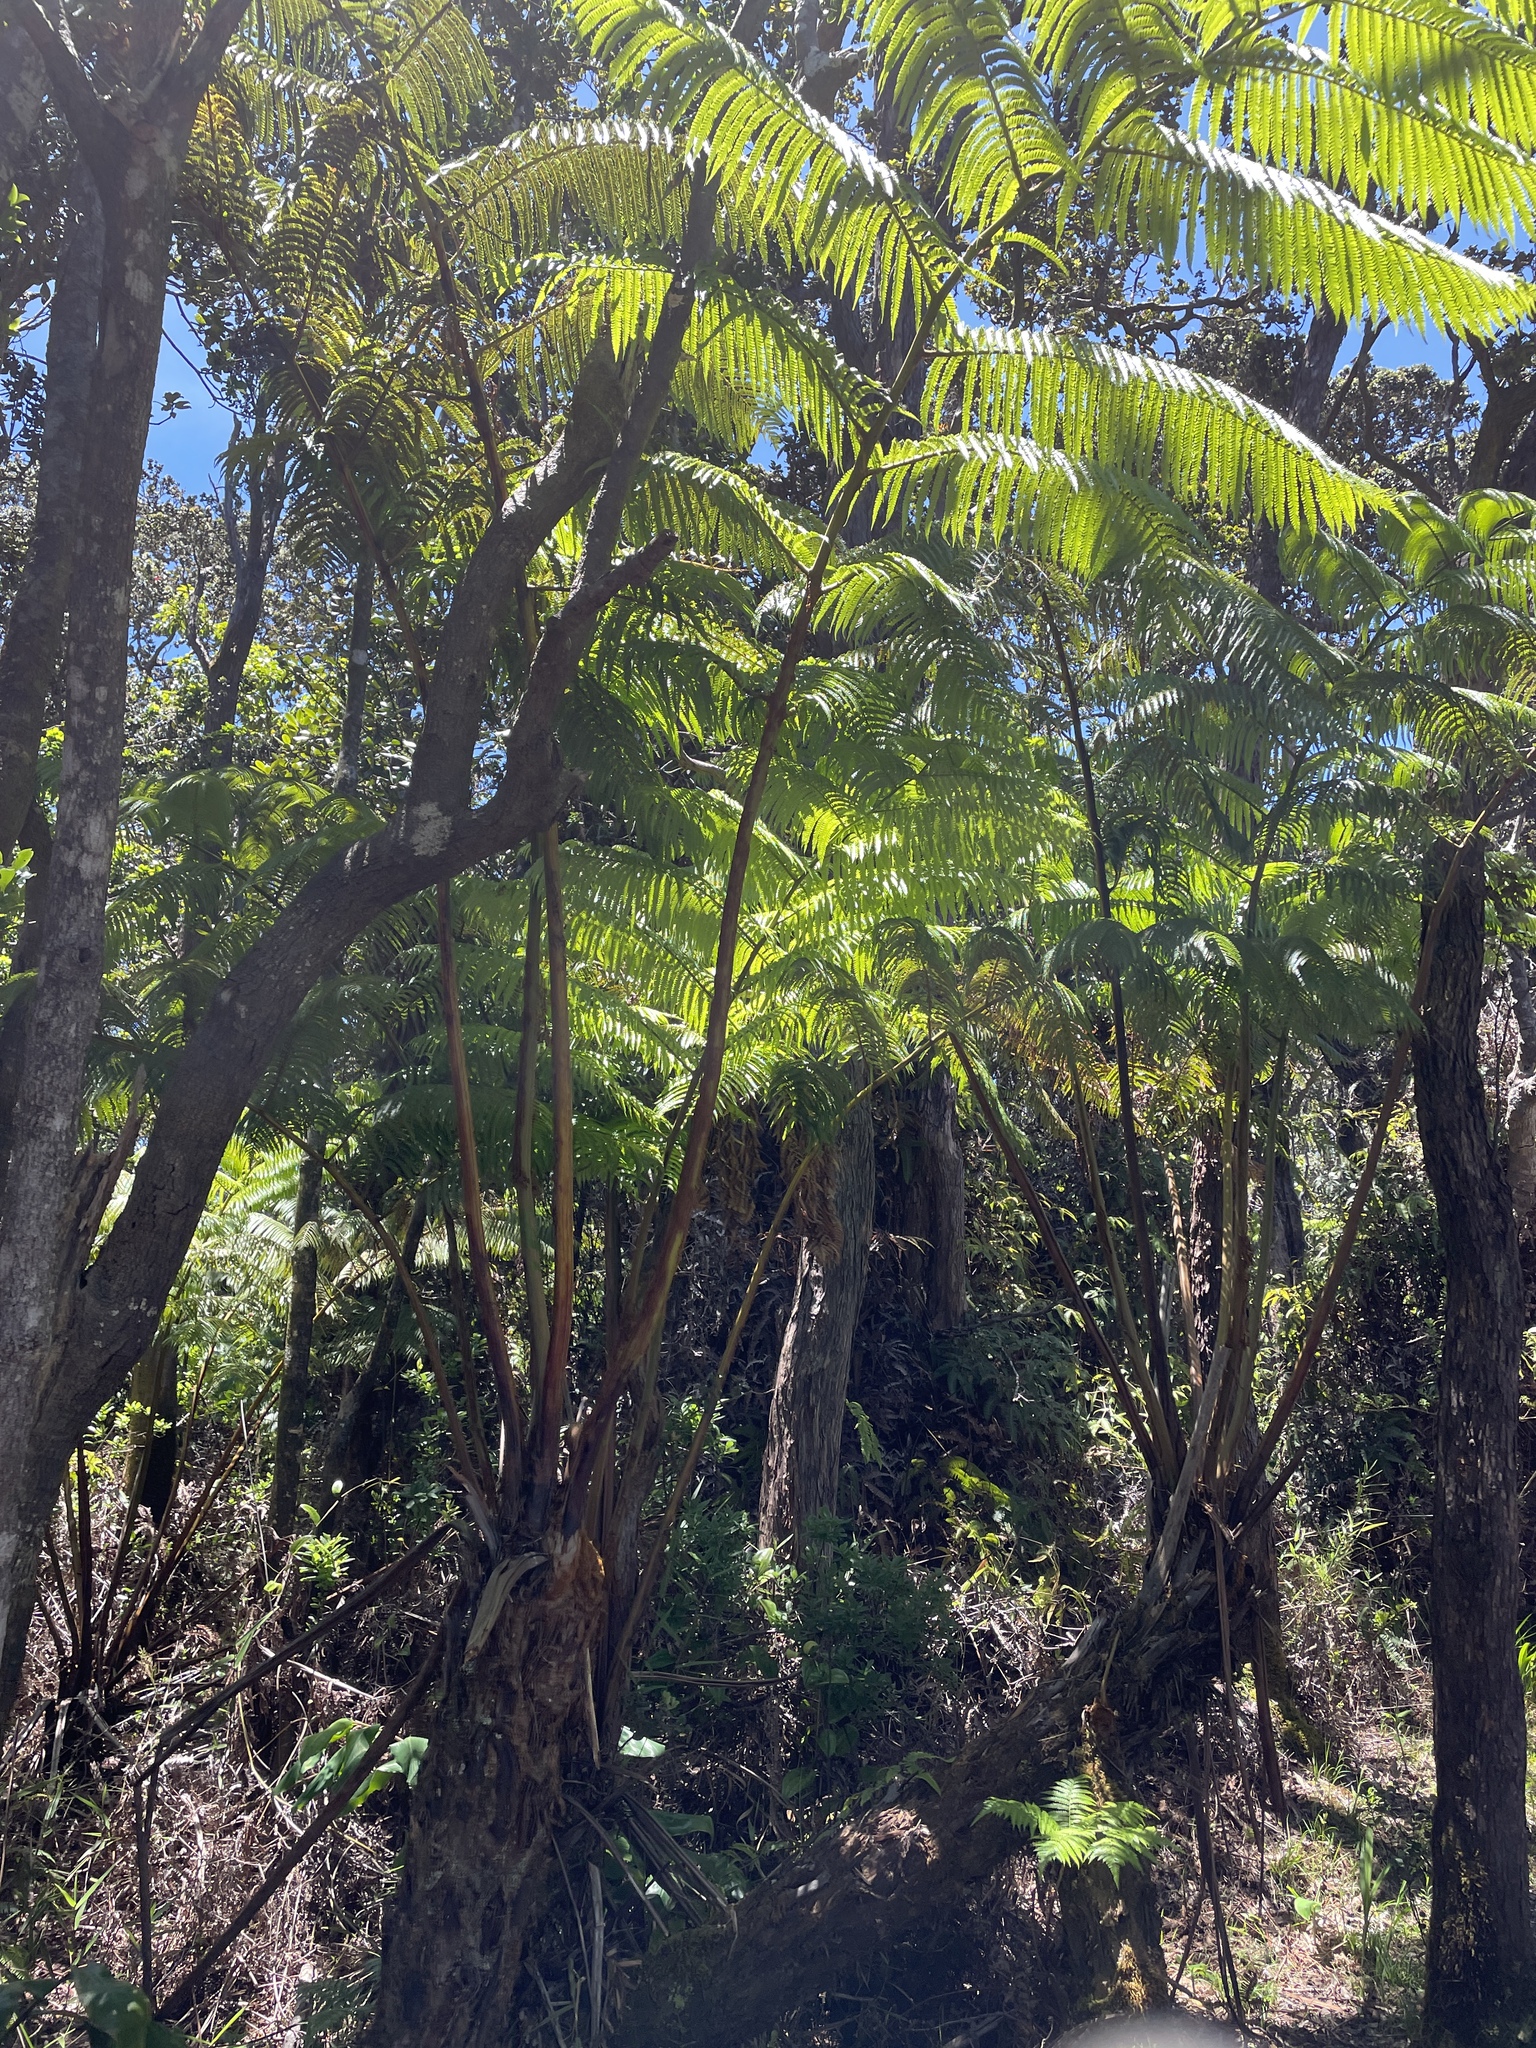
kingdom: Plantae
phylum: Tracheophyta
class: Polypodiopsida
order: Cyatheales
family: Cibotiaceae
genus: Cibotium
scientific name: Cibotium glaucum
